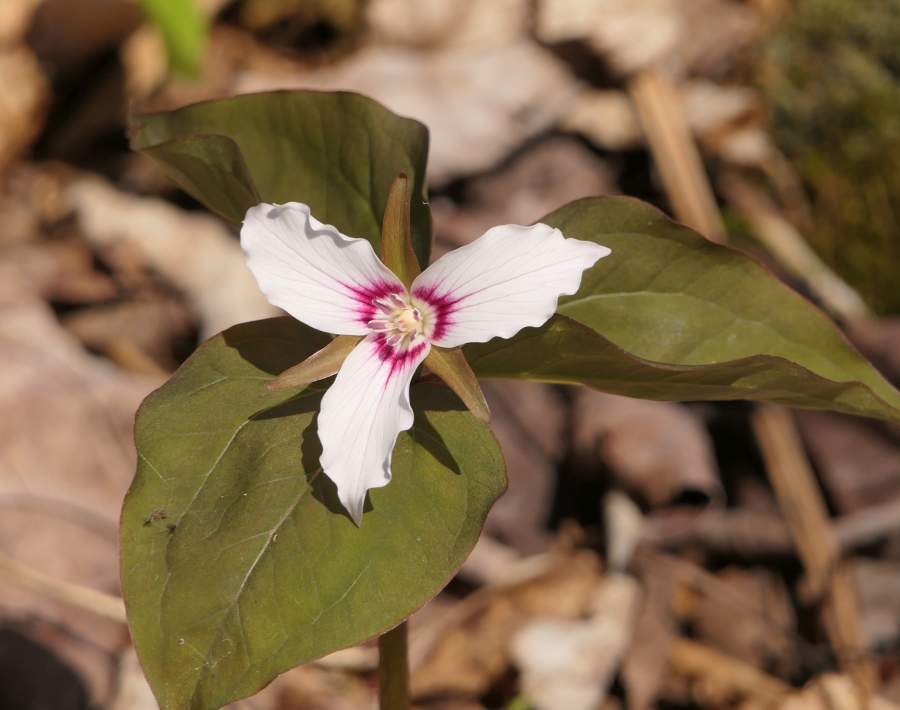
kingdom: Plantae
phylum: Tracheophyta
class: Liliopsida
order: Liliales
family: Melanthiaceae
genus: Trillium
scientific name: Trillium undulatum
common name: Paint trillium
